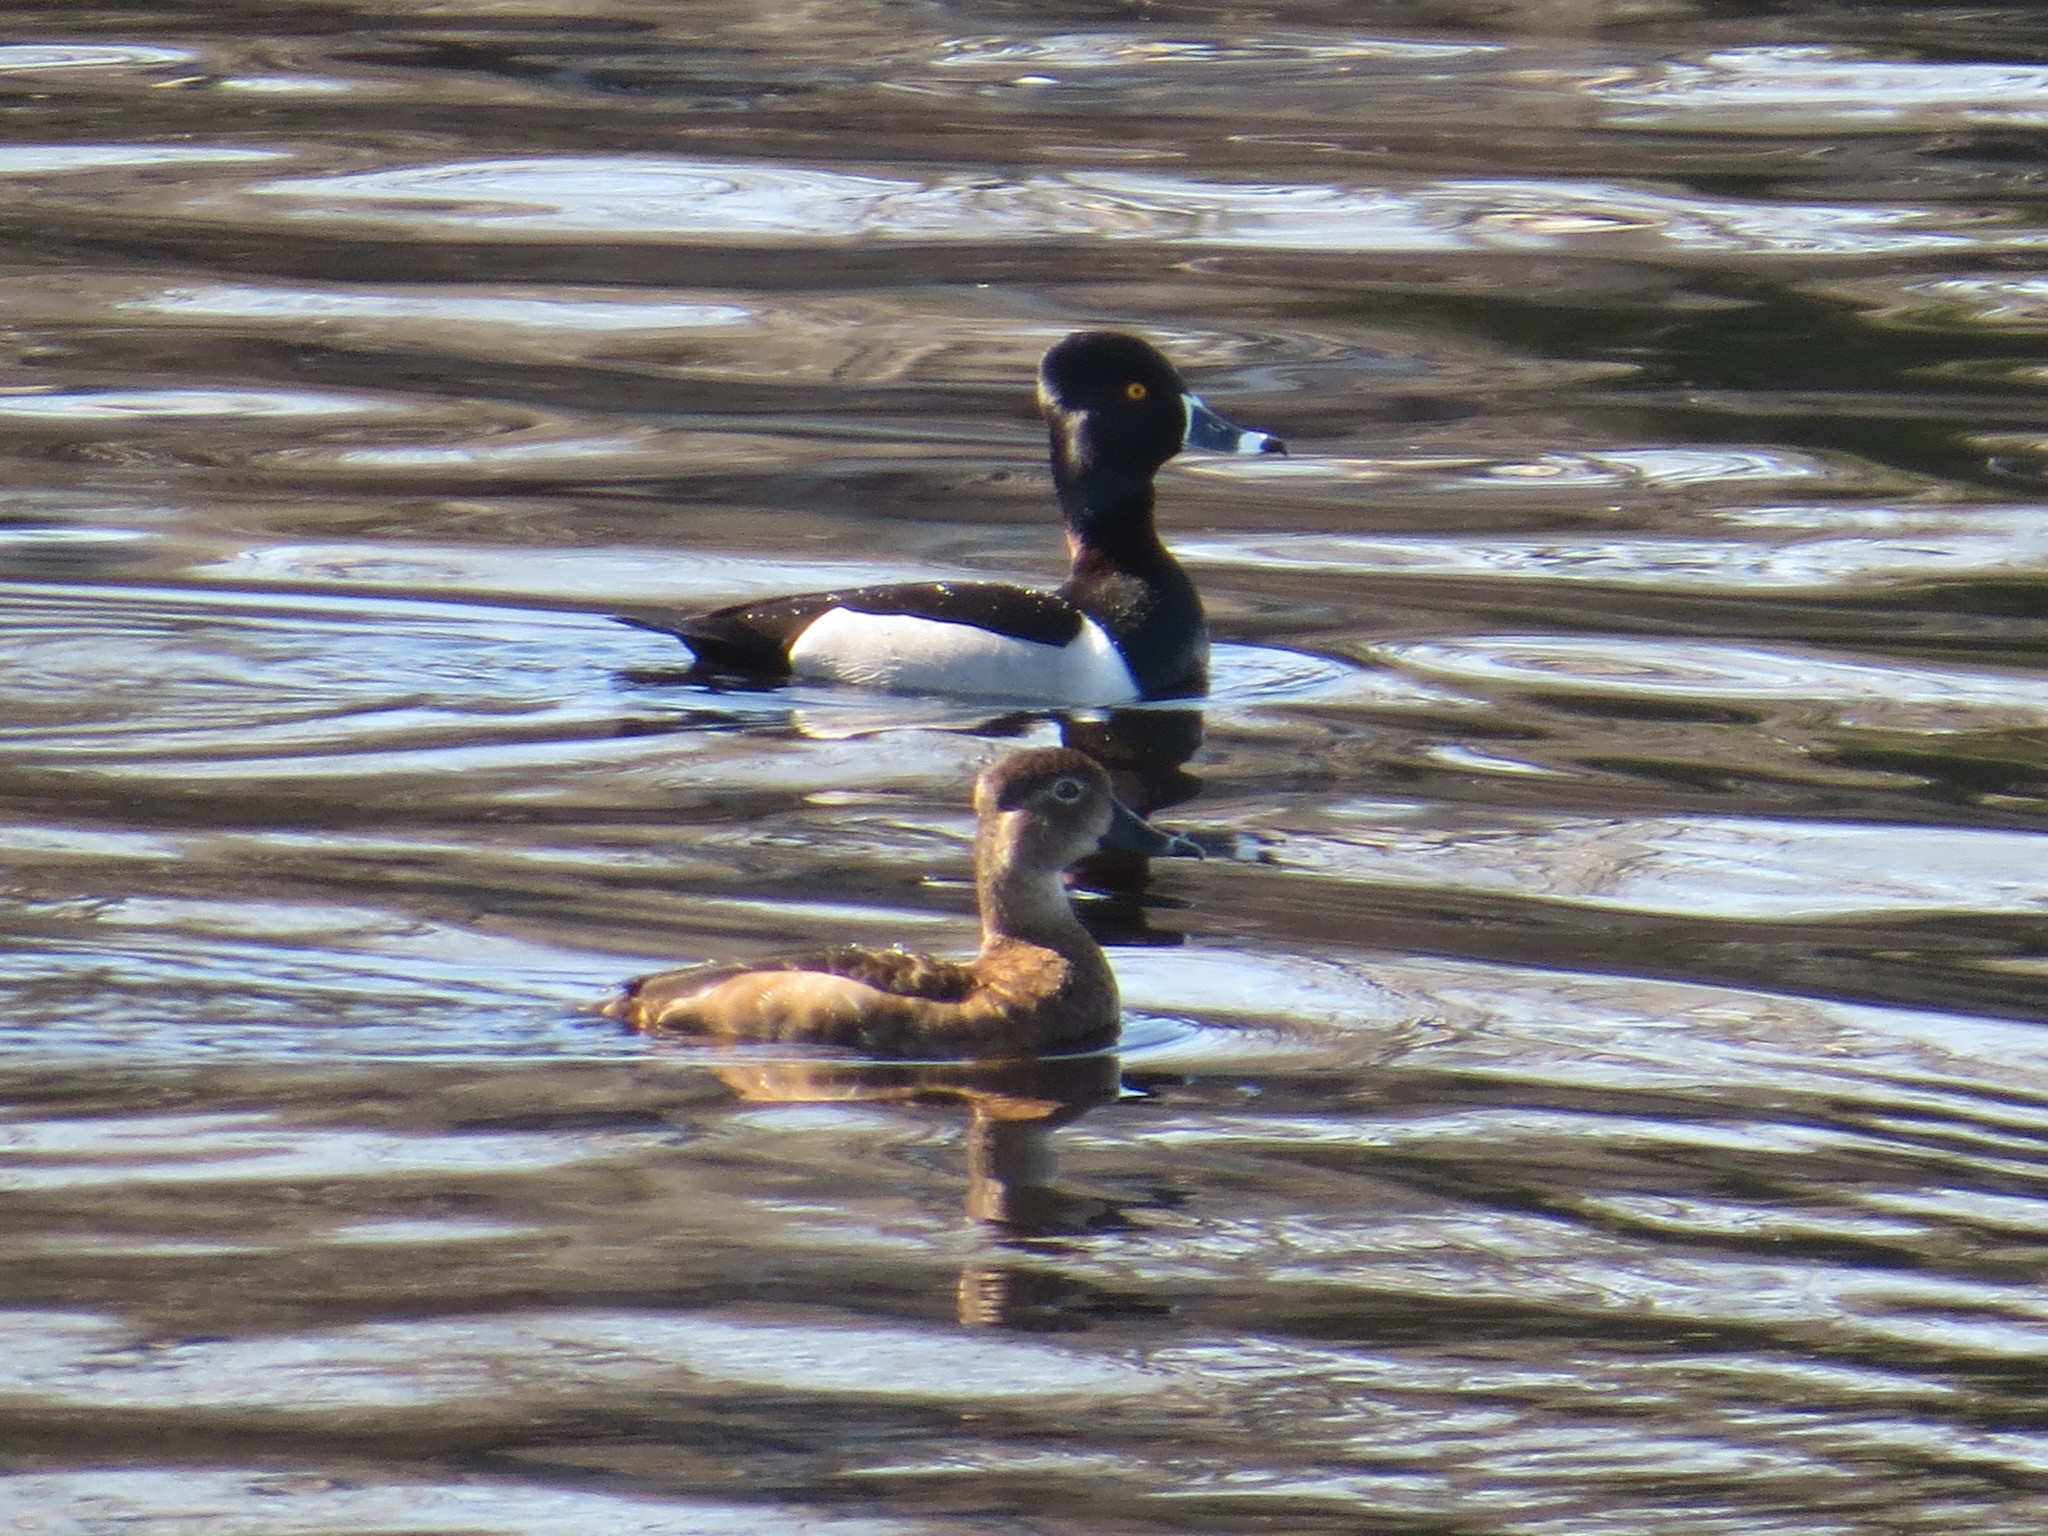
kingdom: Animalia
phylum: Chordata
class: Aves
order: Anseriformes
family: Anatidae
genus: Aythya
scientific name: Aythya collaris
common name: Ring-necked duck
